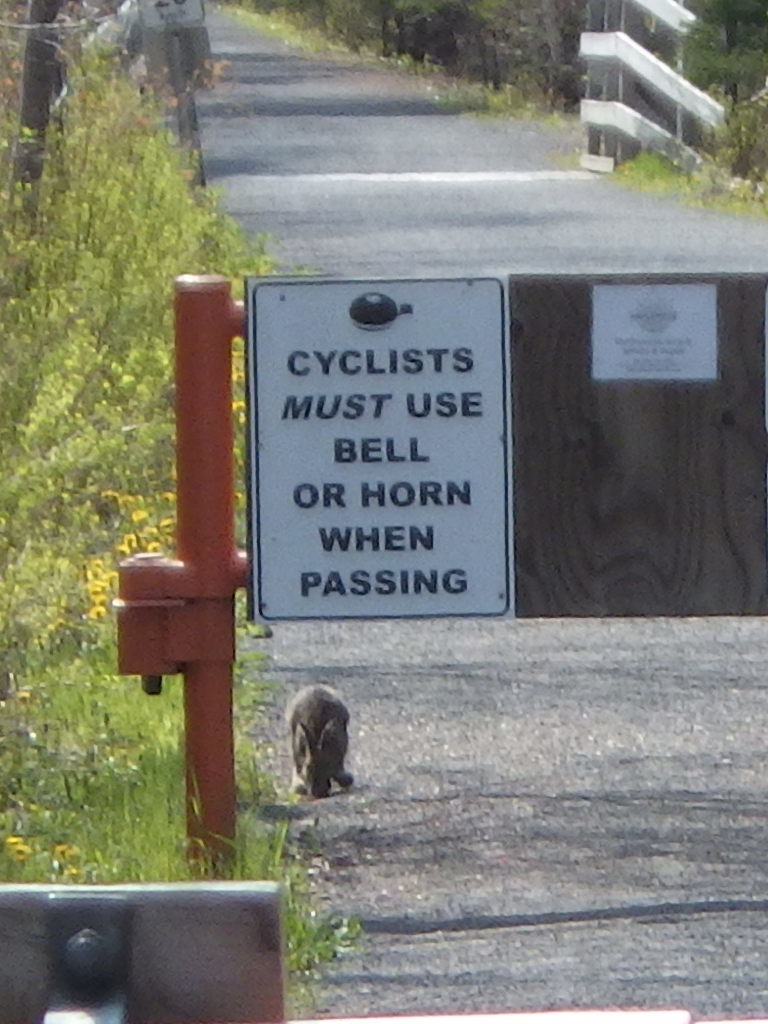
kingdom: Animalia
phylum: Chordata
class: Mammalia
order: Lagomorpha
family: Leporidae
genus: Lepus
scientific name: Lepus americanus
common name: Snowshoe hare
